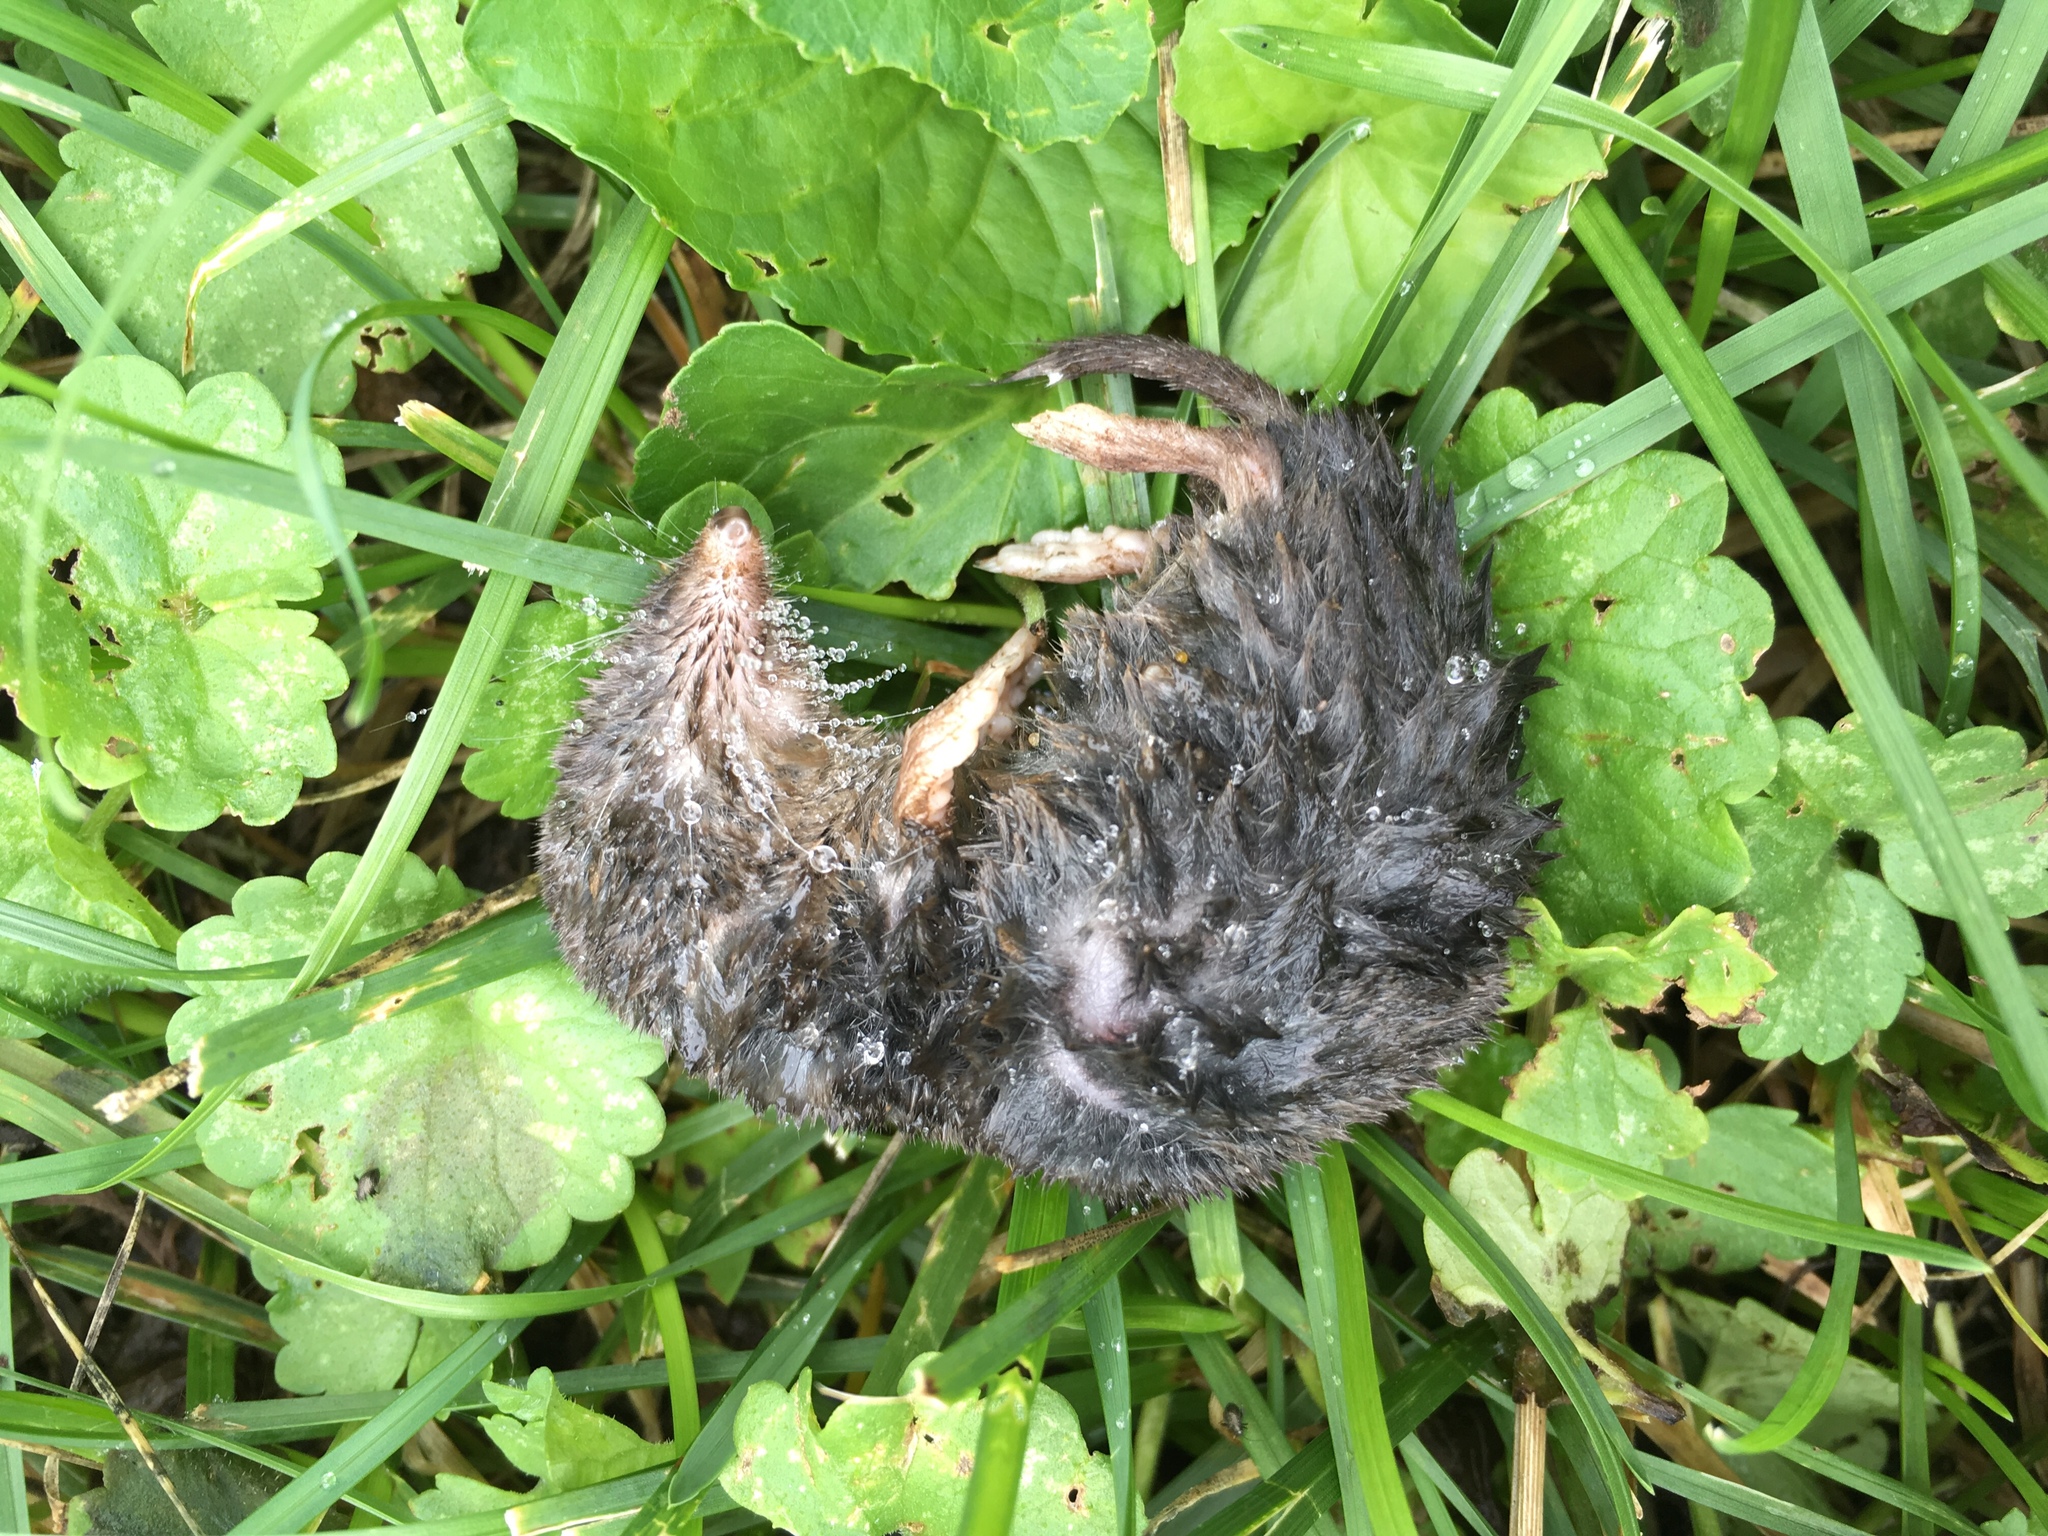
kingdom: Animalia
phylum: Chordata
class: Mammalia
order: Soricomorpha
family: Soricidae
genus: Blarina
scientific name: Blarina brevicauda
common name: Northern short-tailed shrew
